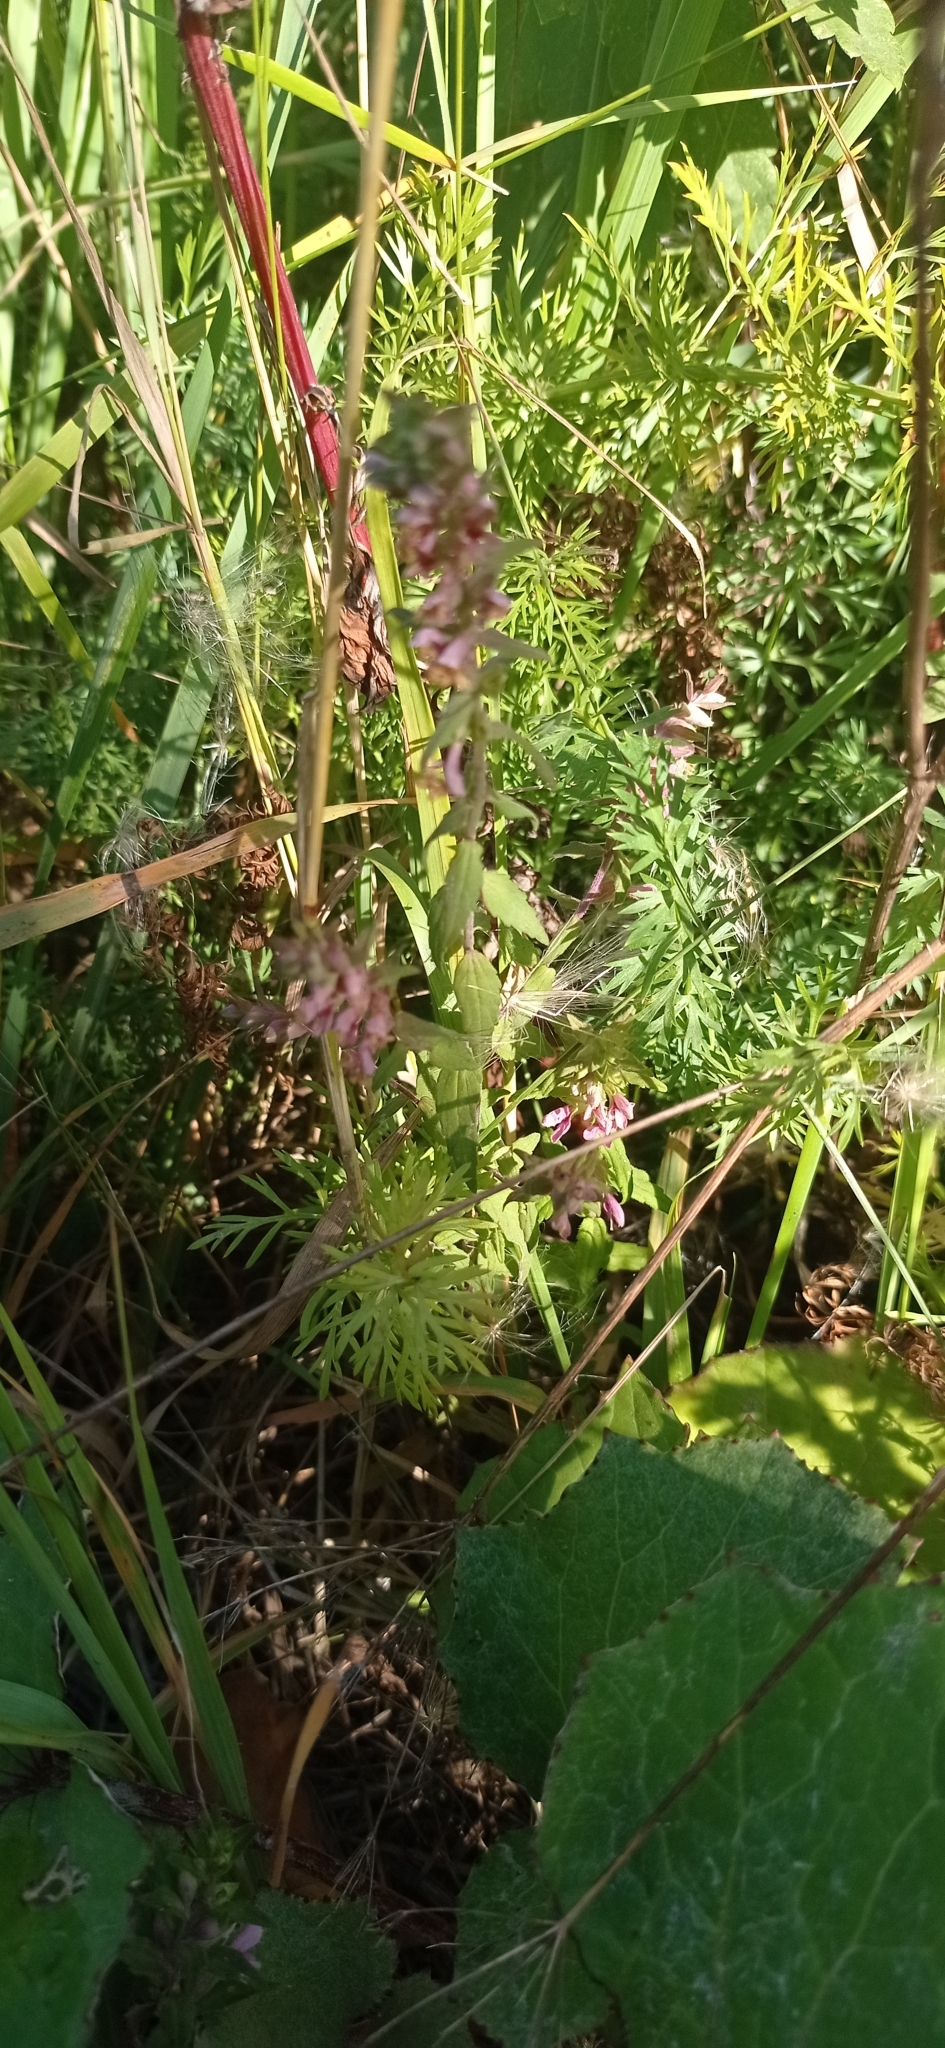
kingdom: Plantae
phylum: Tracheophyta
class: Magnoliopsida
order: Lamiales
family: Orobanchaceae
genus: Odontites
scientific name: Odontites vulgaris
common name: Broomrape
